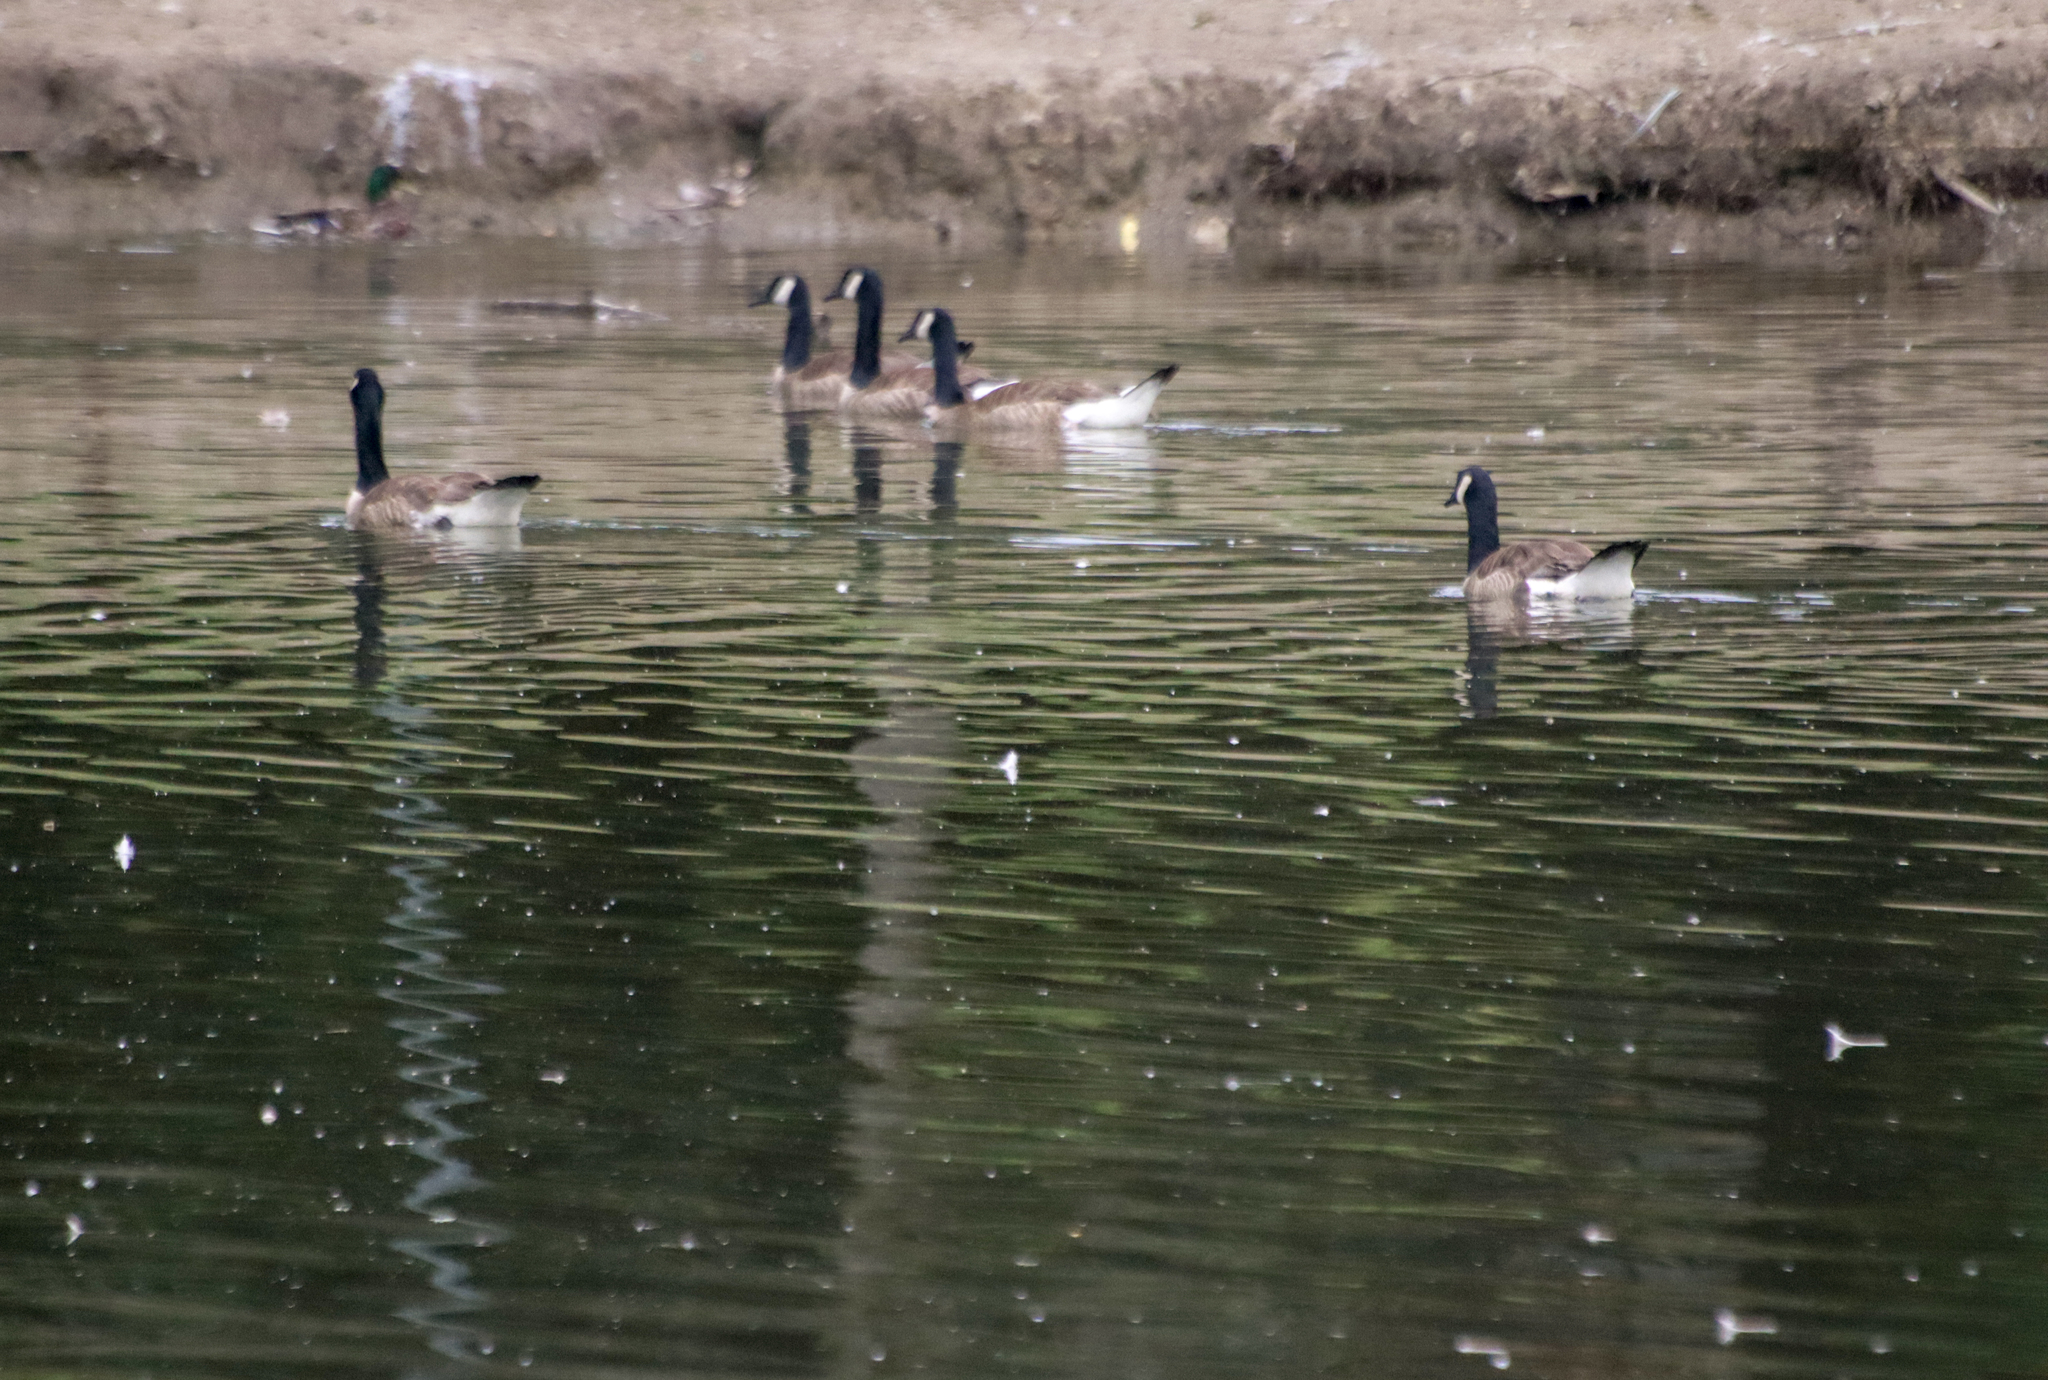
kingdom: Animalia
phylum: Chordata
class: Aves
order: Anseriformes
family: Anatidae
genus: Branta
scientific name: Branta canadensis
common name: Canada goose
